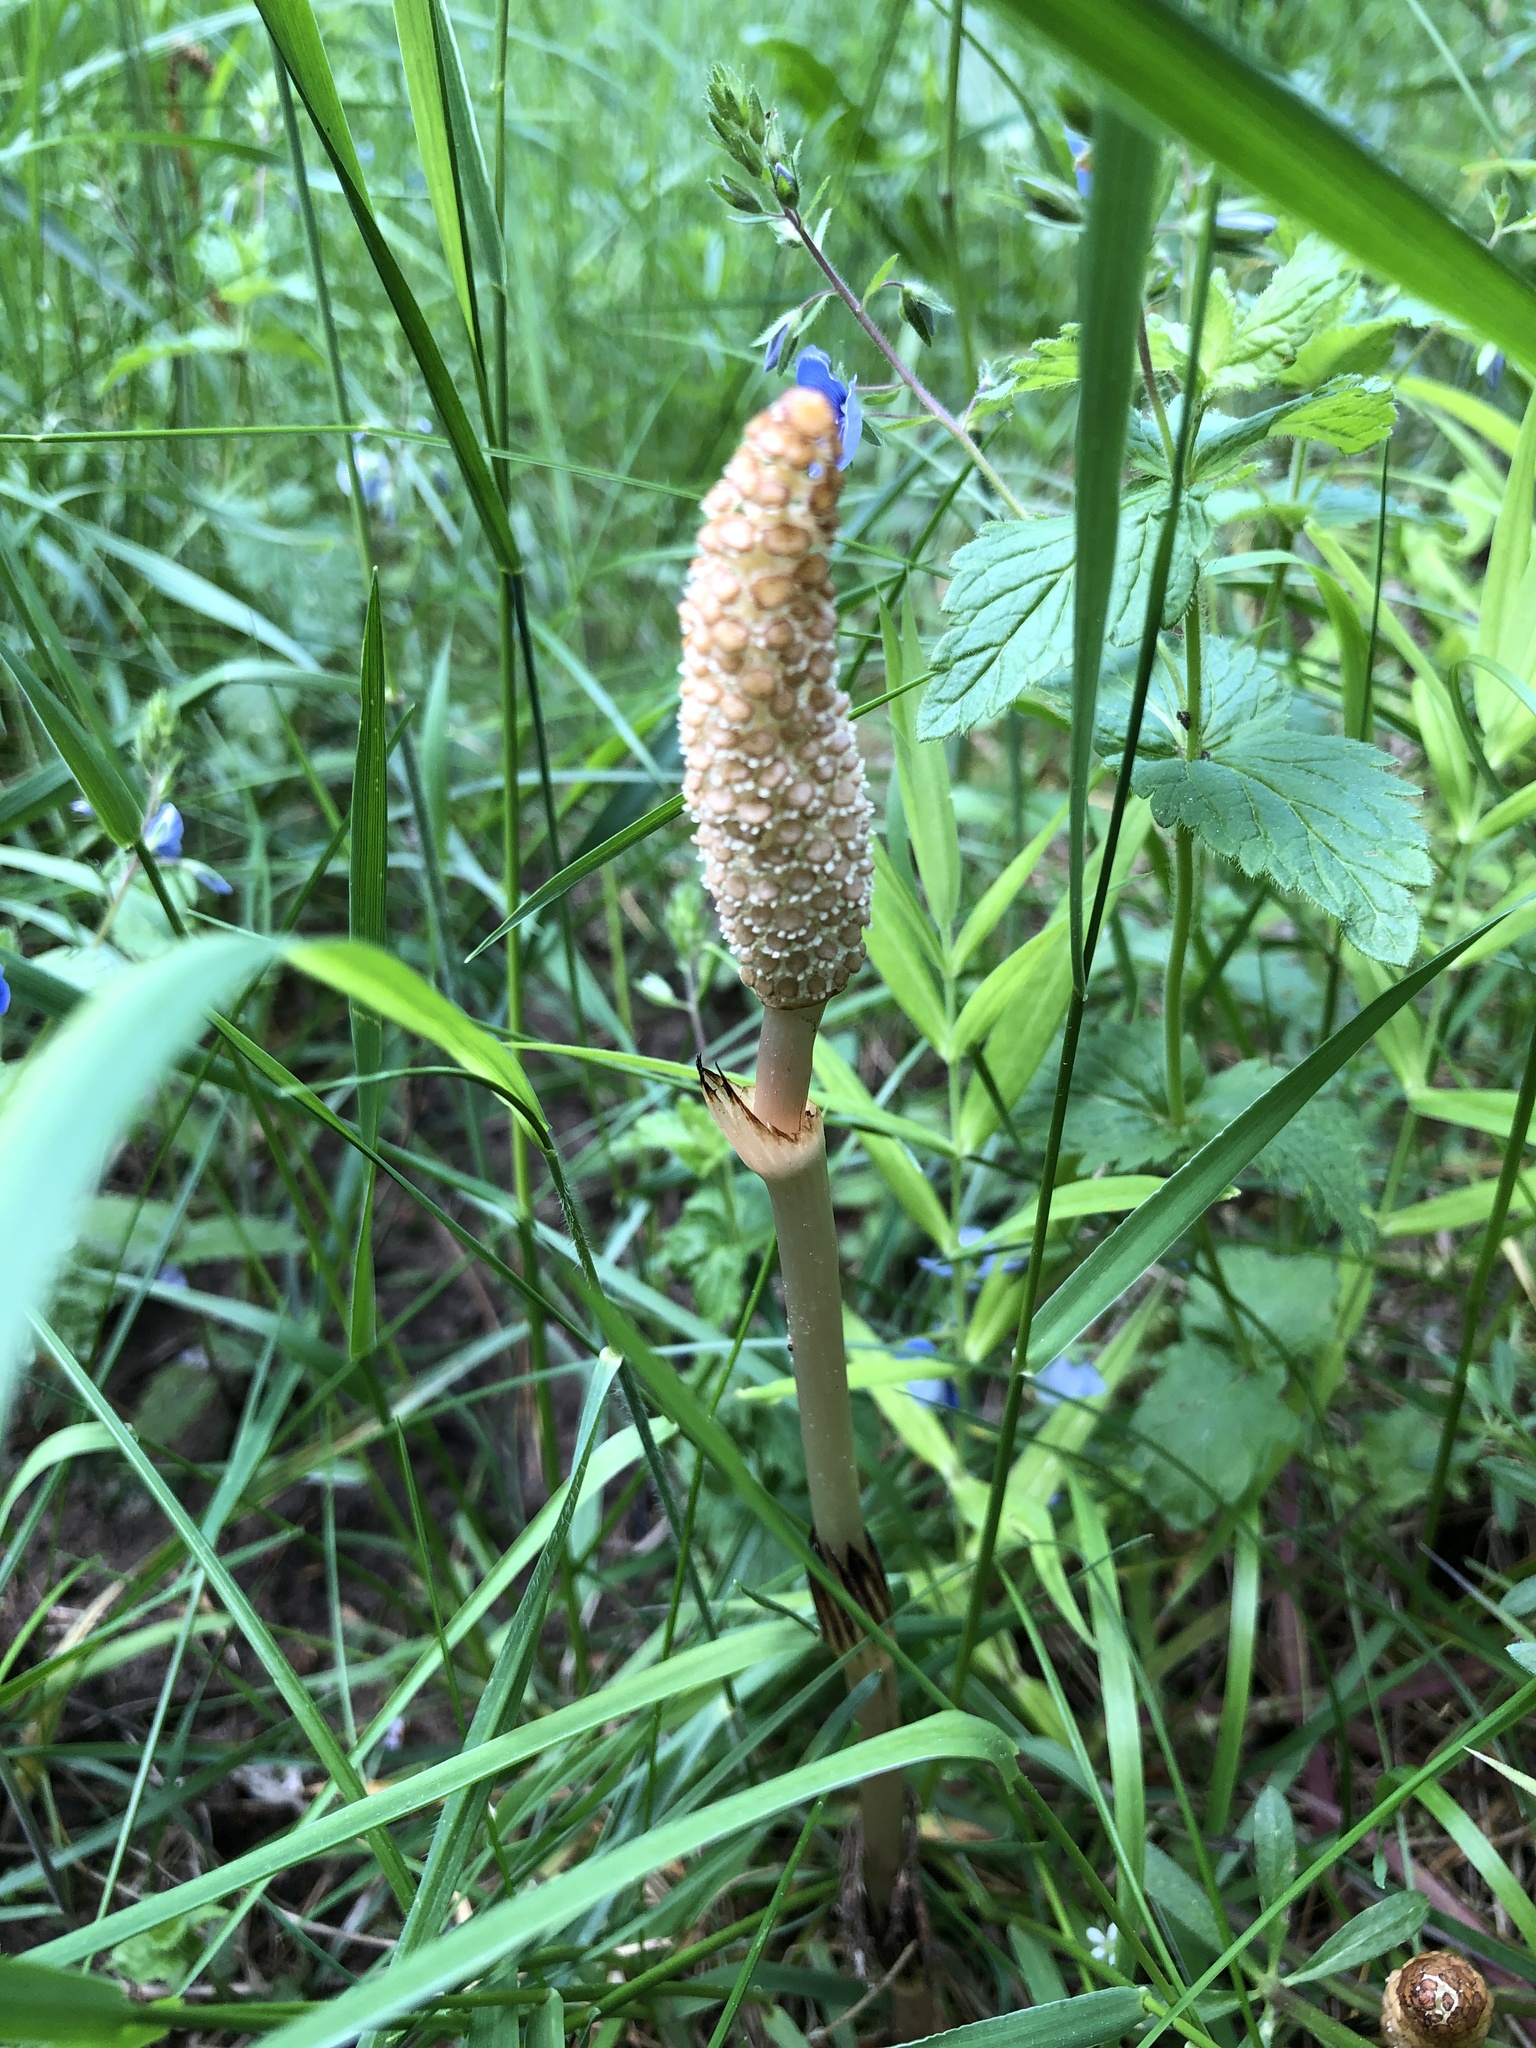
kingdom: Plantae
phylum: Tracheophyta
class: Polypodiopsida
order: Equisetales
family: Equisetaceae
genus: Equisetum
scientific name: Equisetum arvense
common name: Field horsetail
